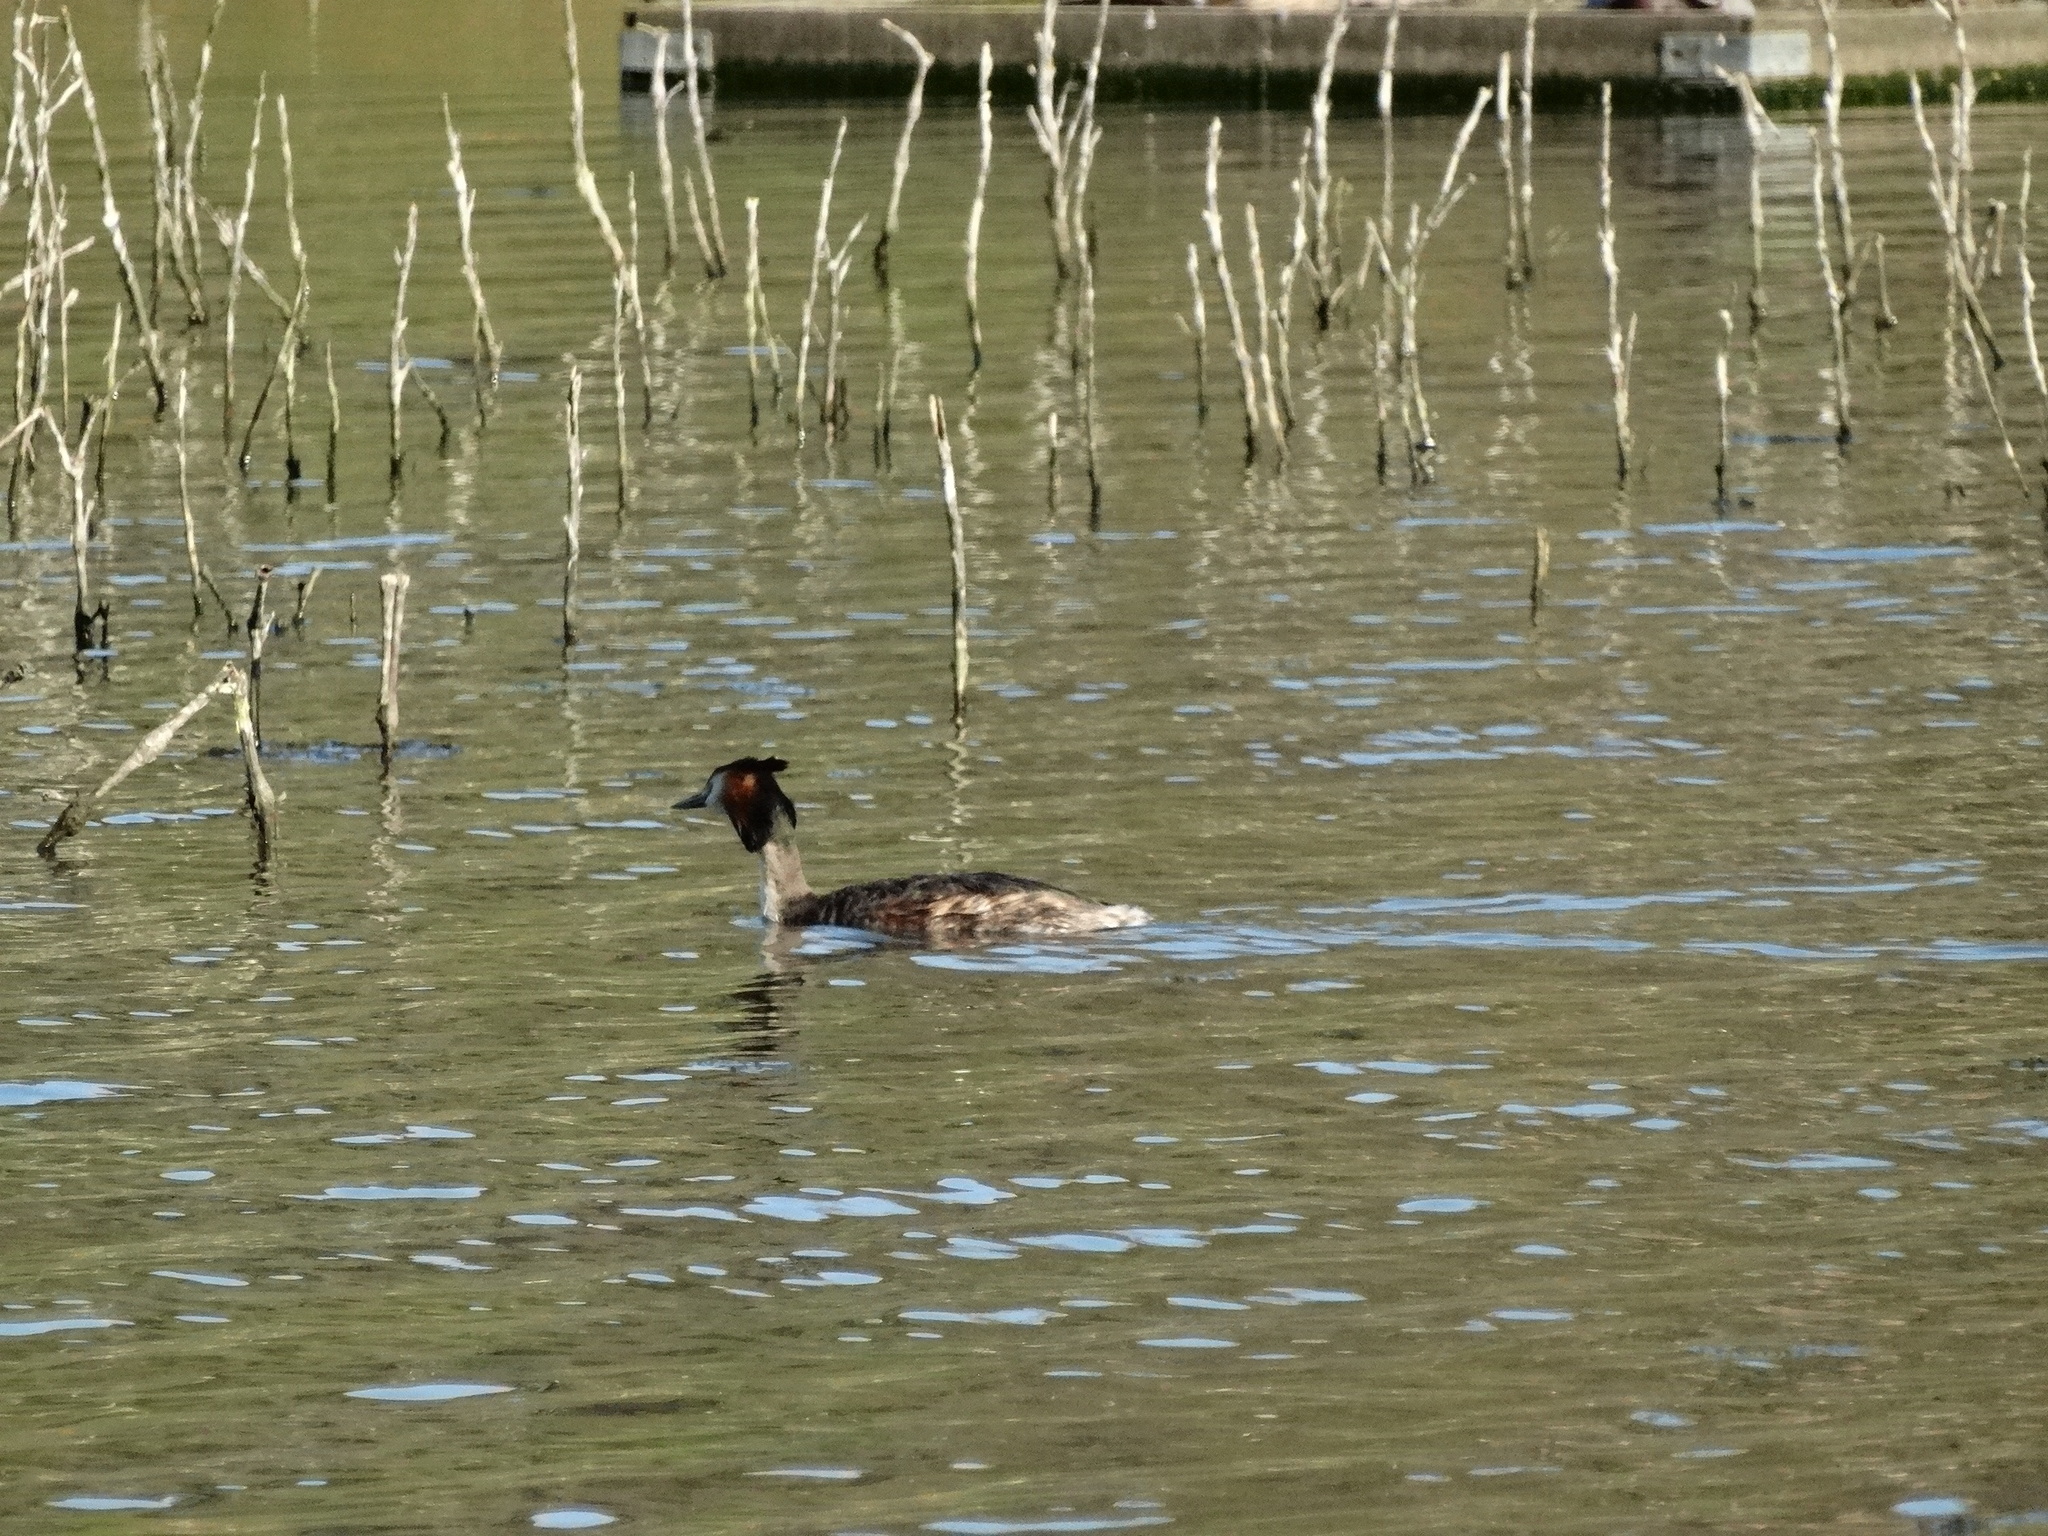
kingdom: Animalia
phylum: Chordata
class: Aves
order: Podicipediformes
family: Podicipedidae
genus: Podiceps
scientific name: Podiceps cristatus
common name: Great crested grebe
